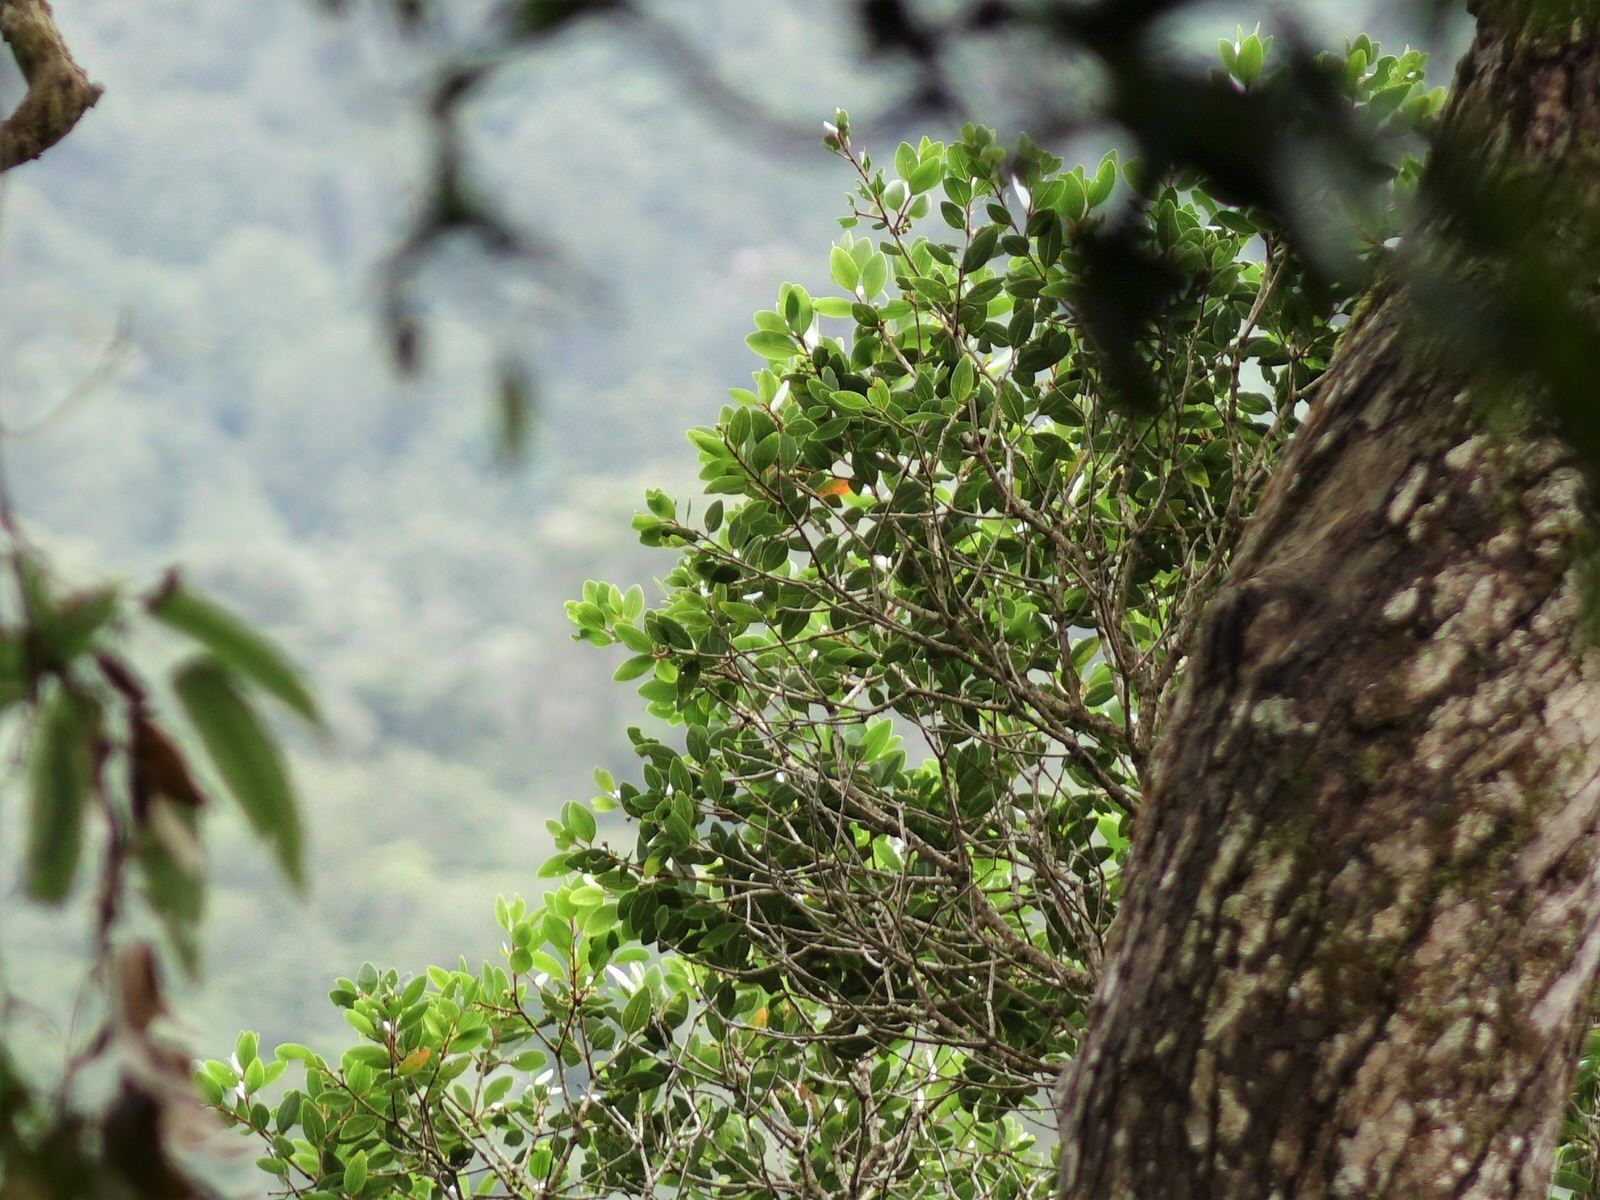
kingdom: Plantae
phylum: Tracheophyta
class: Magnoliopsida
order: Myrtales
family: Myrtaceae
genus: Metrosideros
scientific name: Metrosideros robusta
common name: Northern rata
